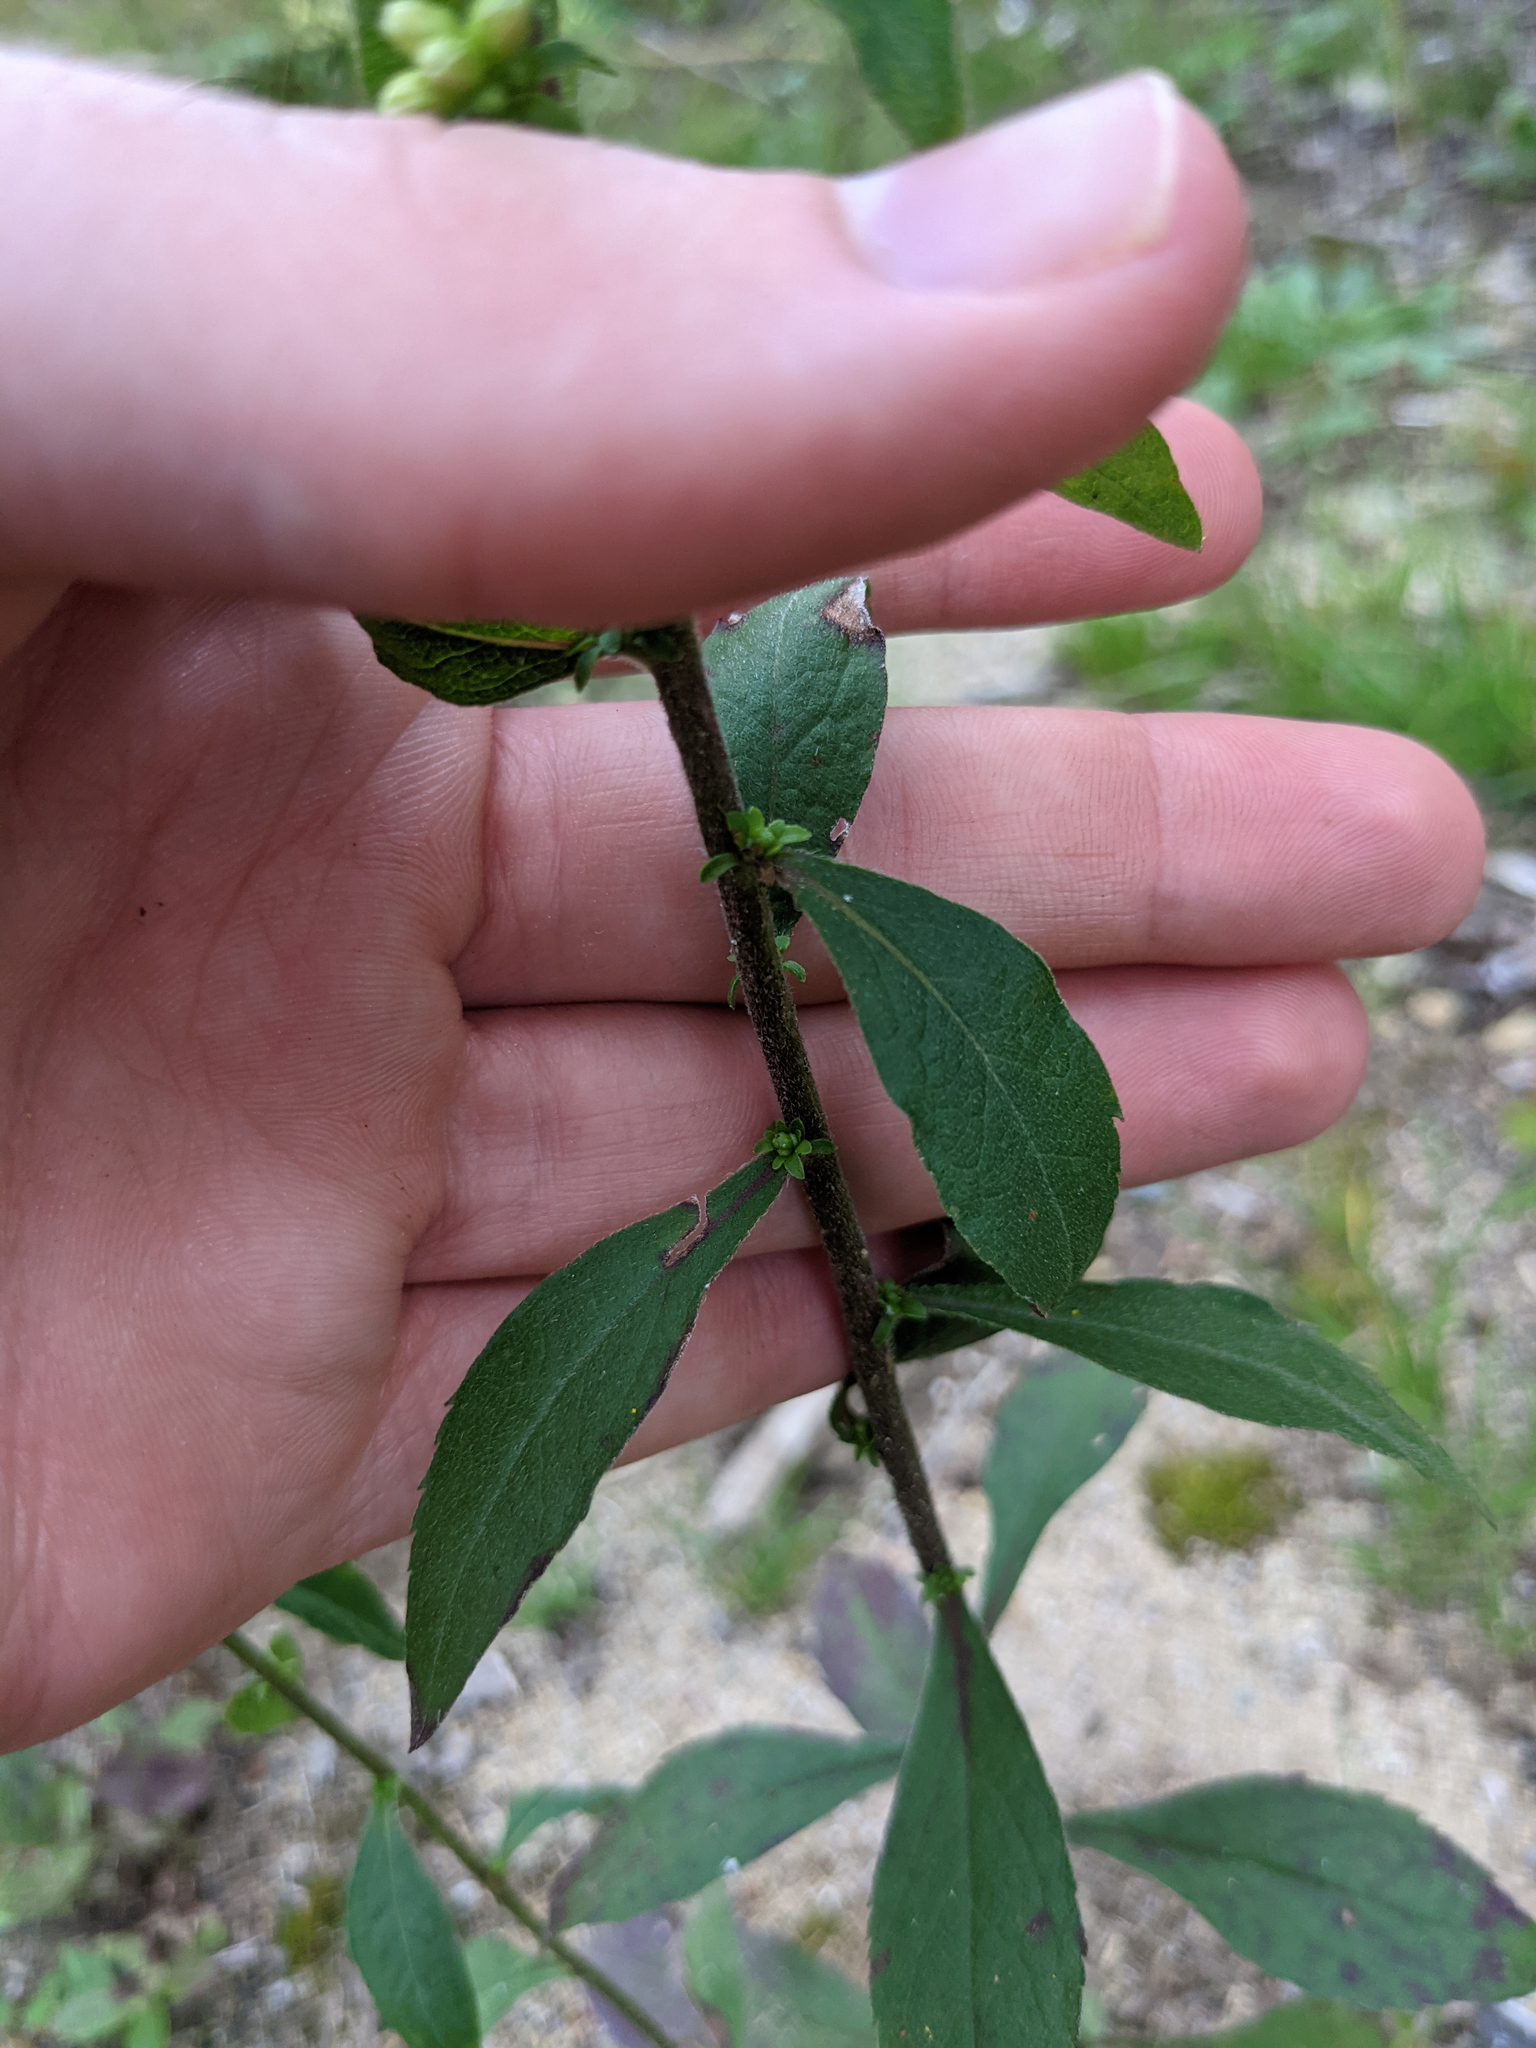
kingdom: Plantae
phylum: Tracheophyta
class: Magnoliopsida
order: Asterales
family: Asteraceae
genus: Solidago
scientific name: Solidago bicolor
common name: Silverrod
